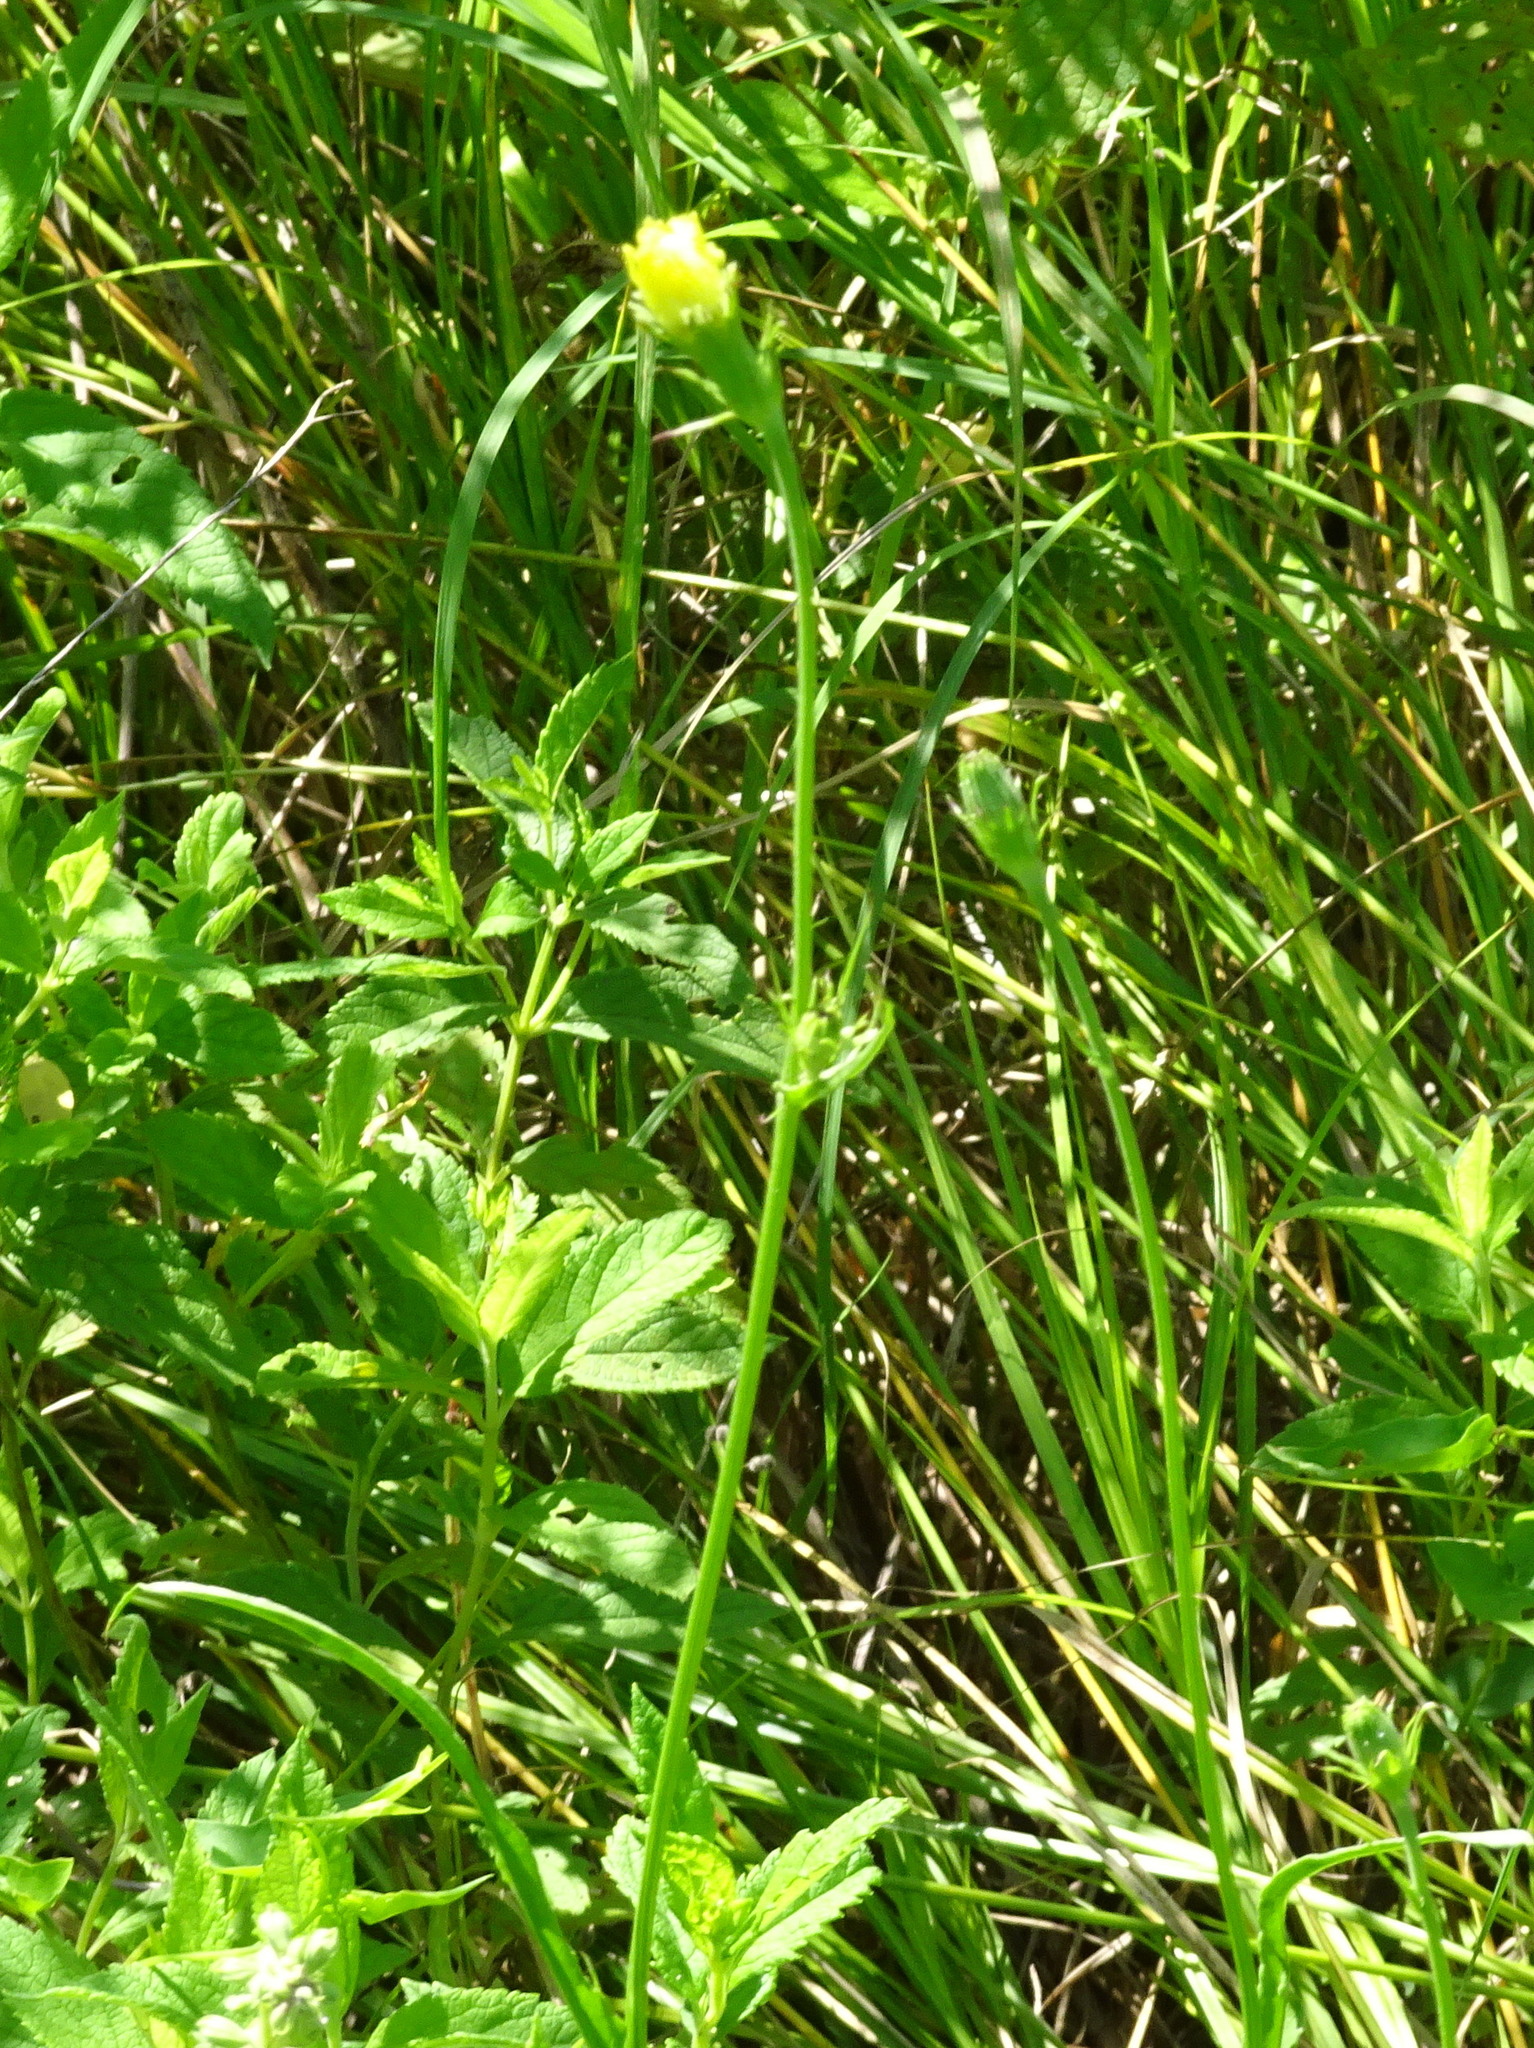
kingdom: Plantae
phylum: Tracheophyta
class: Magnoliopsida
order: Asterales
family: Asteraceae
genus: Pyrrhopappus
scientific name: Pyrrhopappus carolinianus
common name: Carolina desert-chicory
